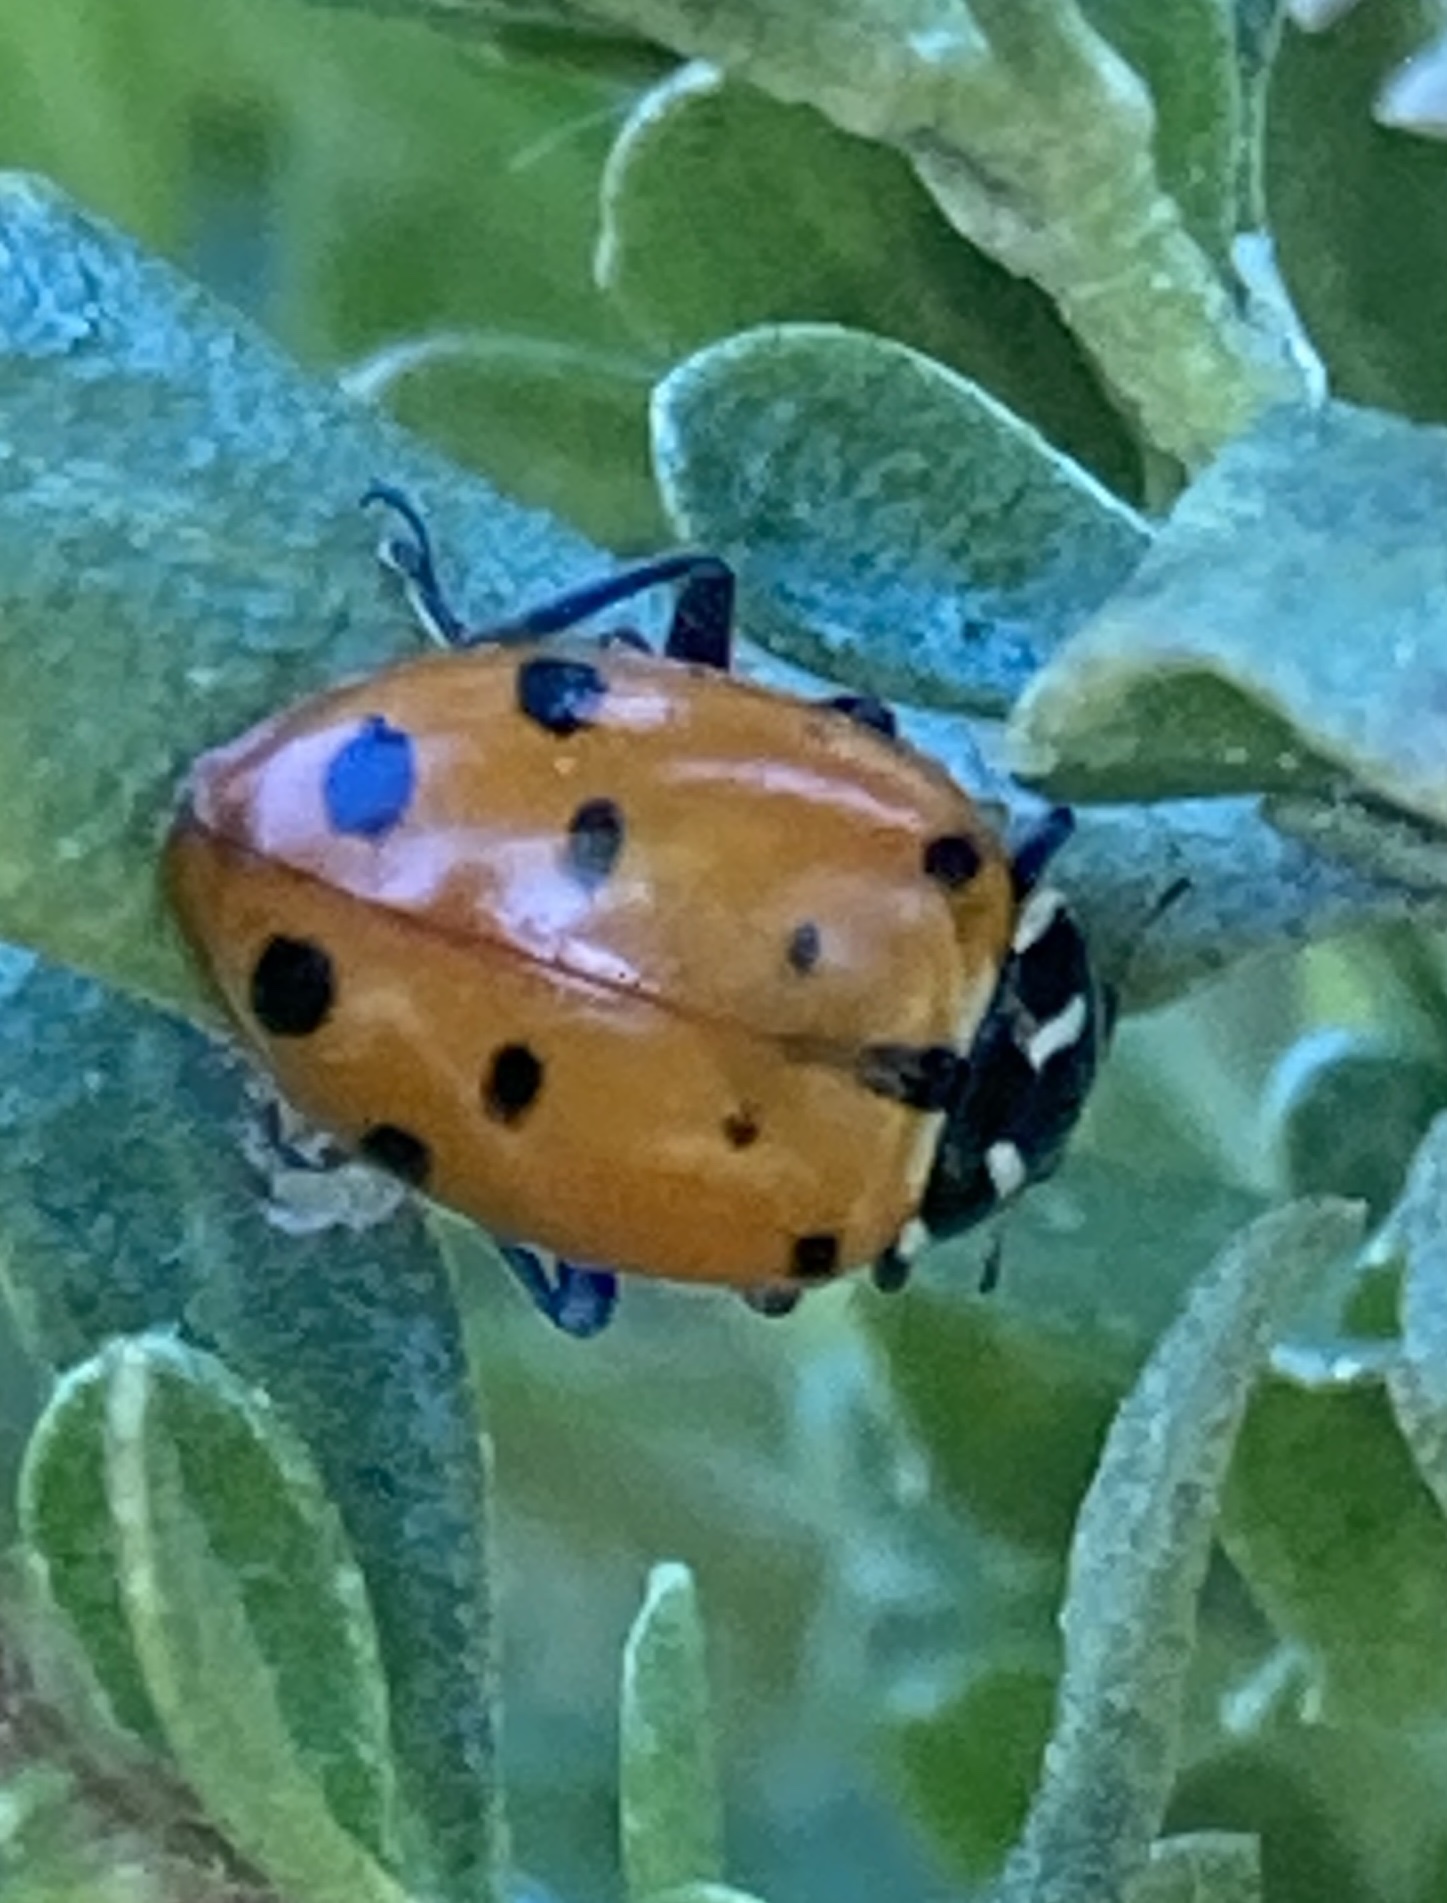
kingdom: Animalia
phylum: Arthropoda
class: Insecta
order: Coleoptera
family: Coccinellidae
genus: Hippodamia
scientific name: Hippodamia convergens
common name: Convergent lady beetle
